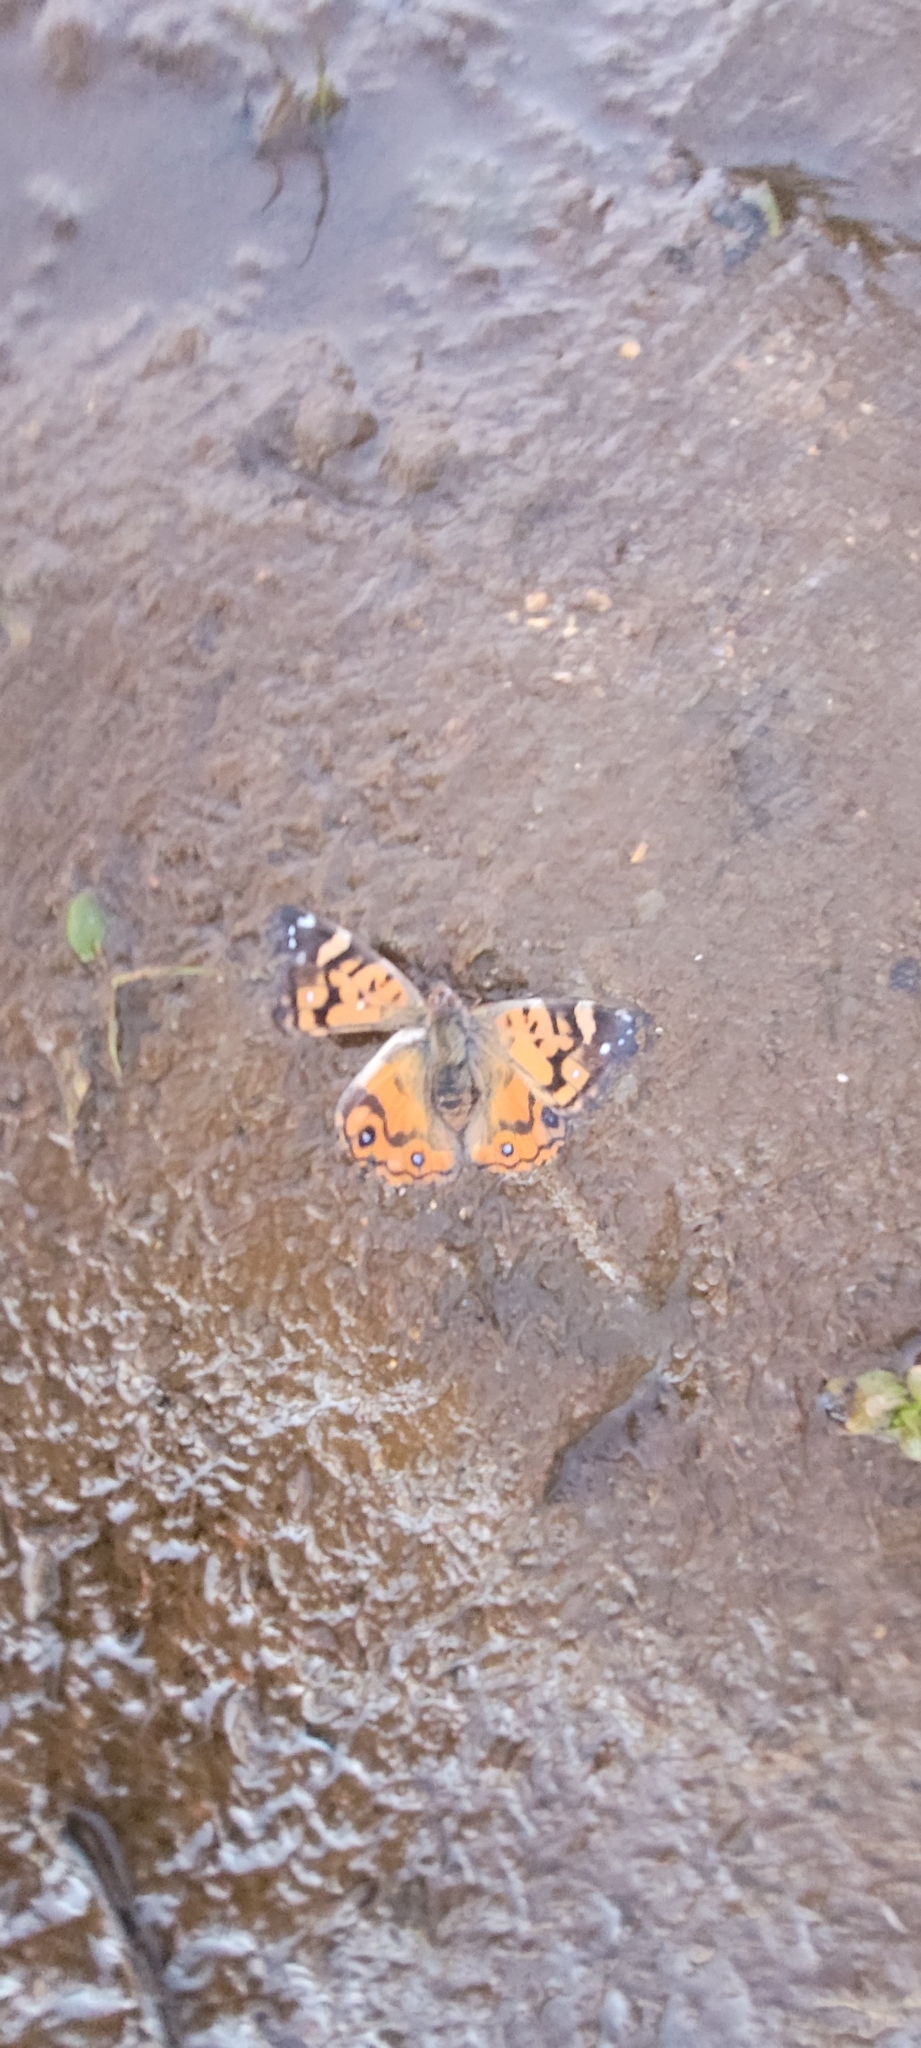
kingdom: Animalia
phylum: Arthropoda
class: Insecta
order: Lepidoptera
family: Nymphalidae
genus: Vanessa
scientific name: Vanessa terpsichore
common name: Chilean lady
